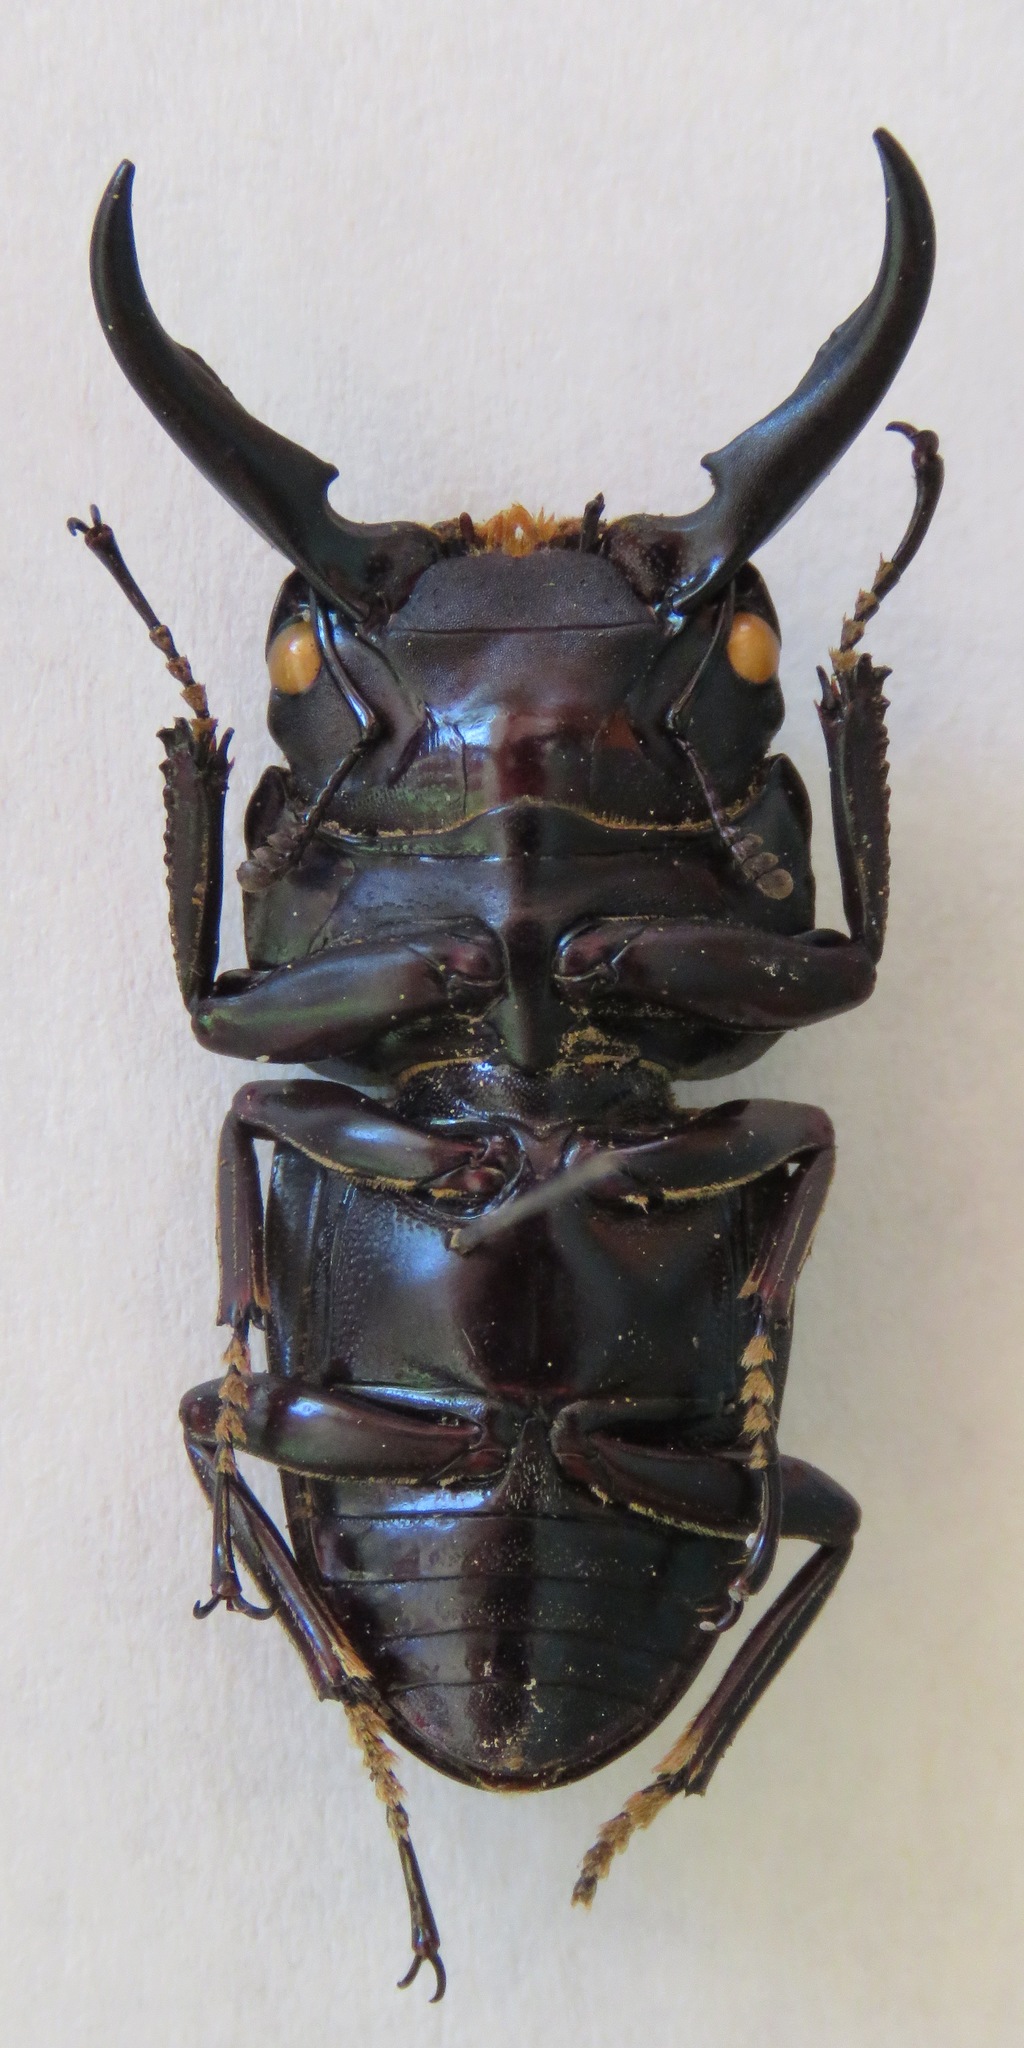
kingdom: Animalia
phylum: Arthropoda
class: Insecta
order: Coleoptera
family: Lucanidae
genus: Dorcus
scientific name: Dorcus ternatensis
